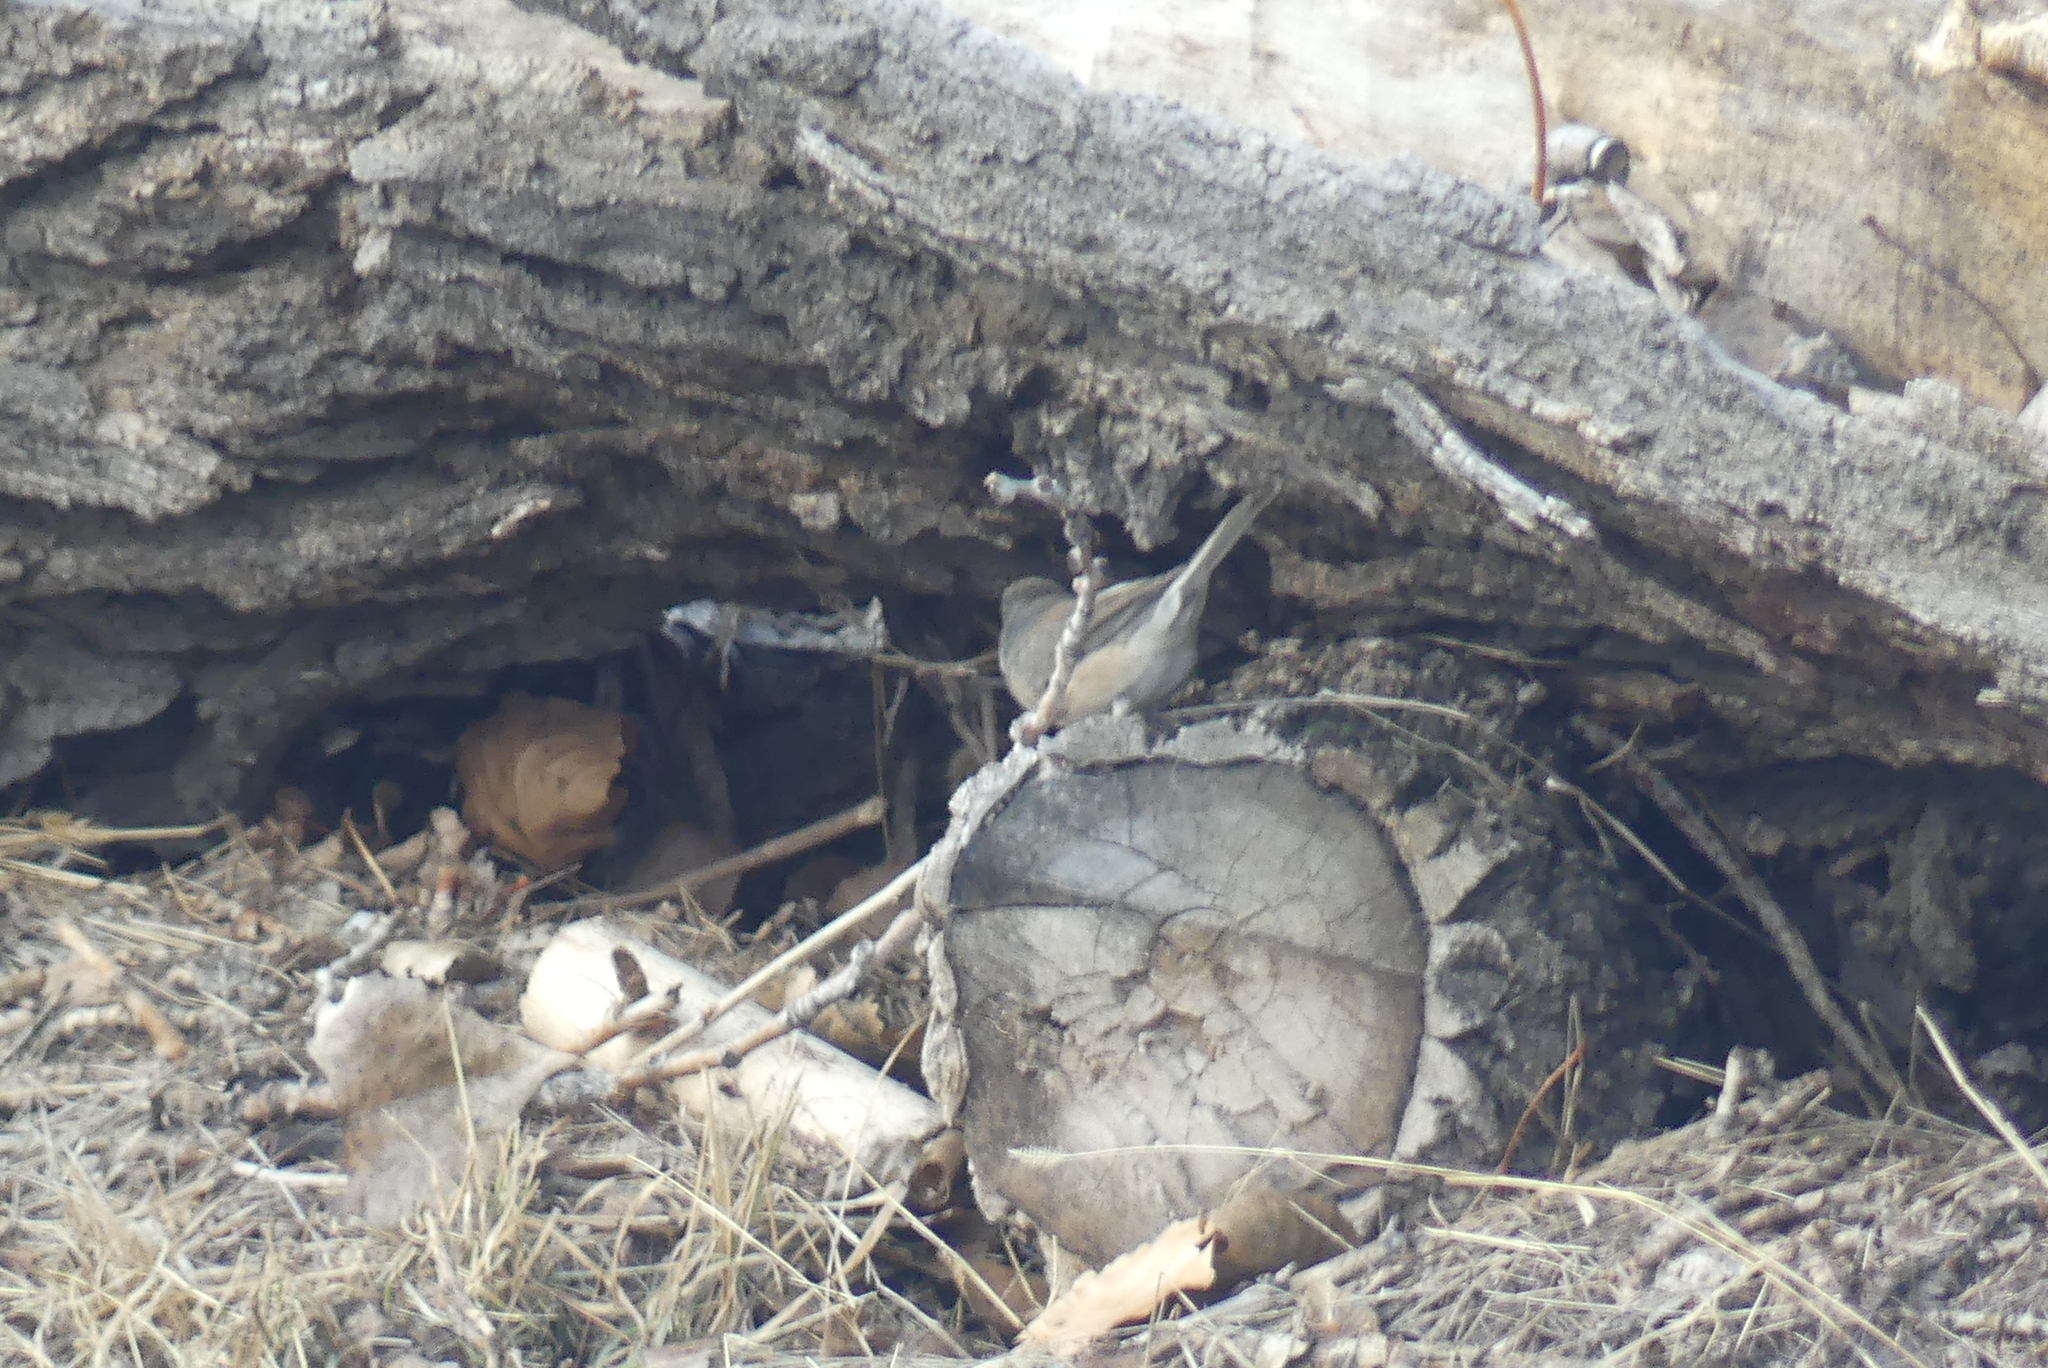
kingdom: Animalia
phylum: Chordata
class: Aves
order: Passeriformes
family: Passerellidae
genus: Junco
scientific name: Junco hyemalis
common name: Dark-eyed junco
